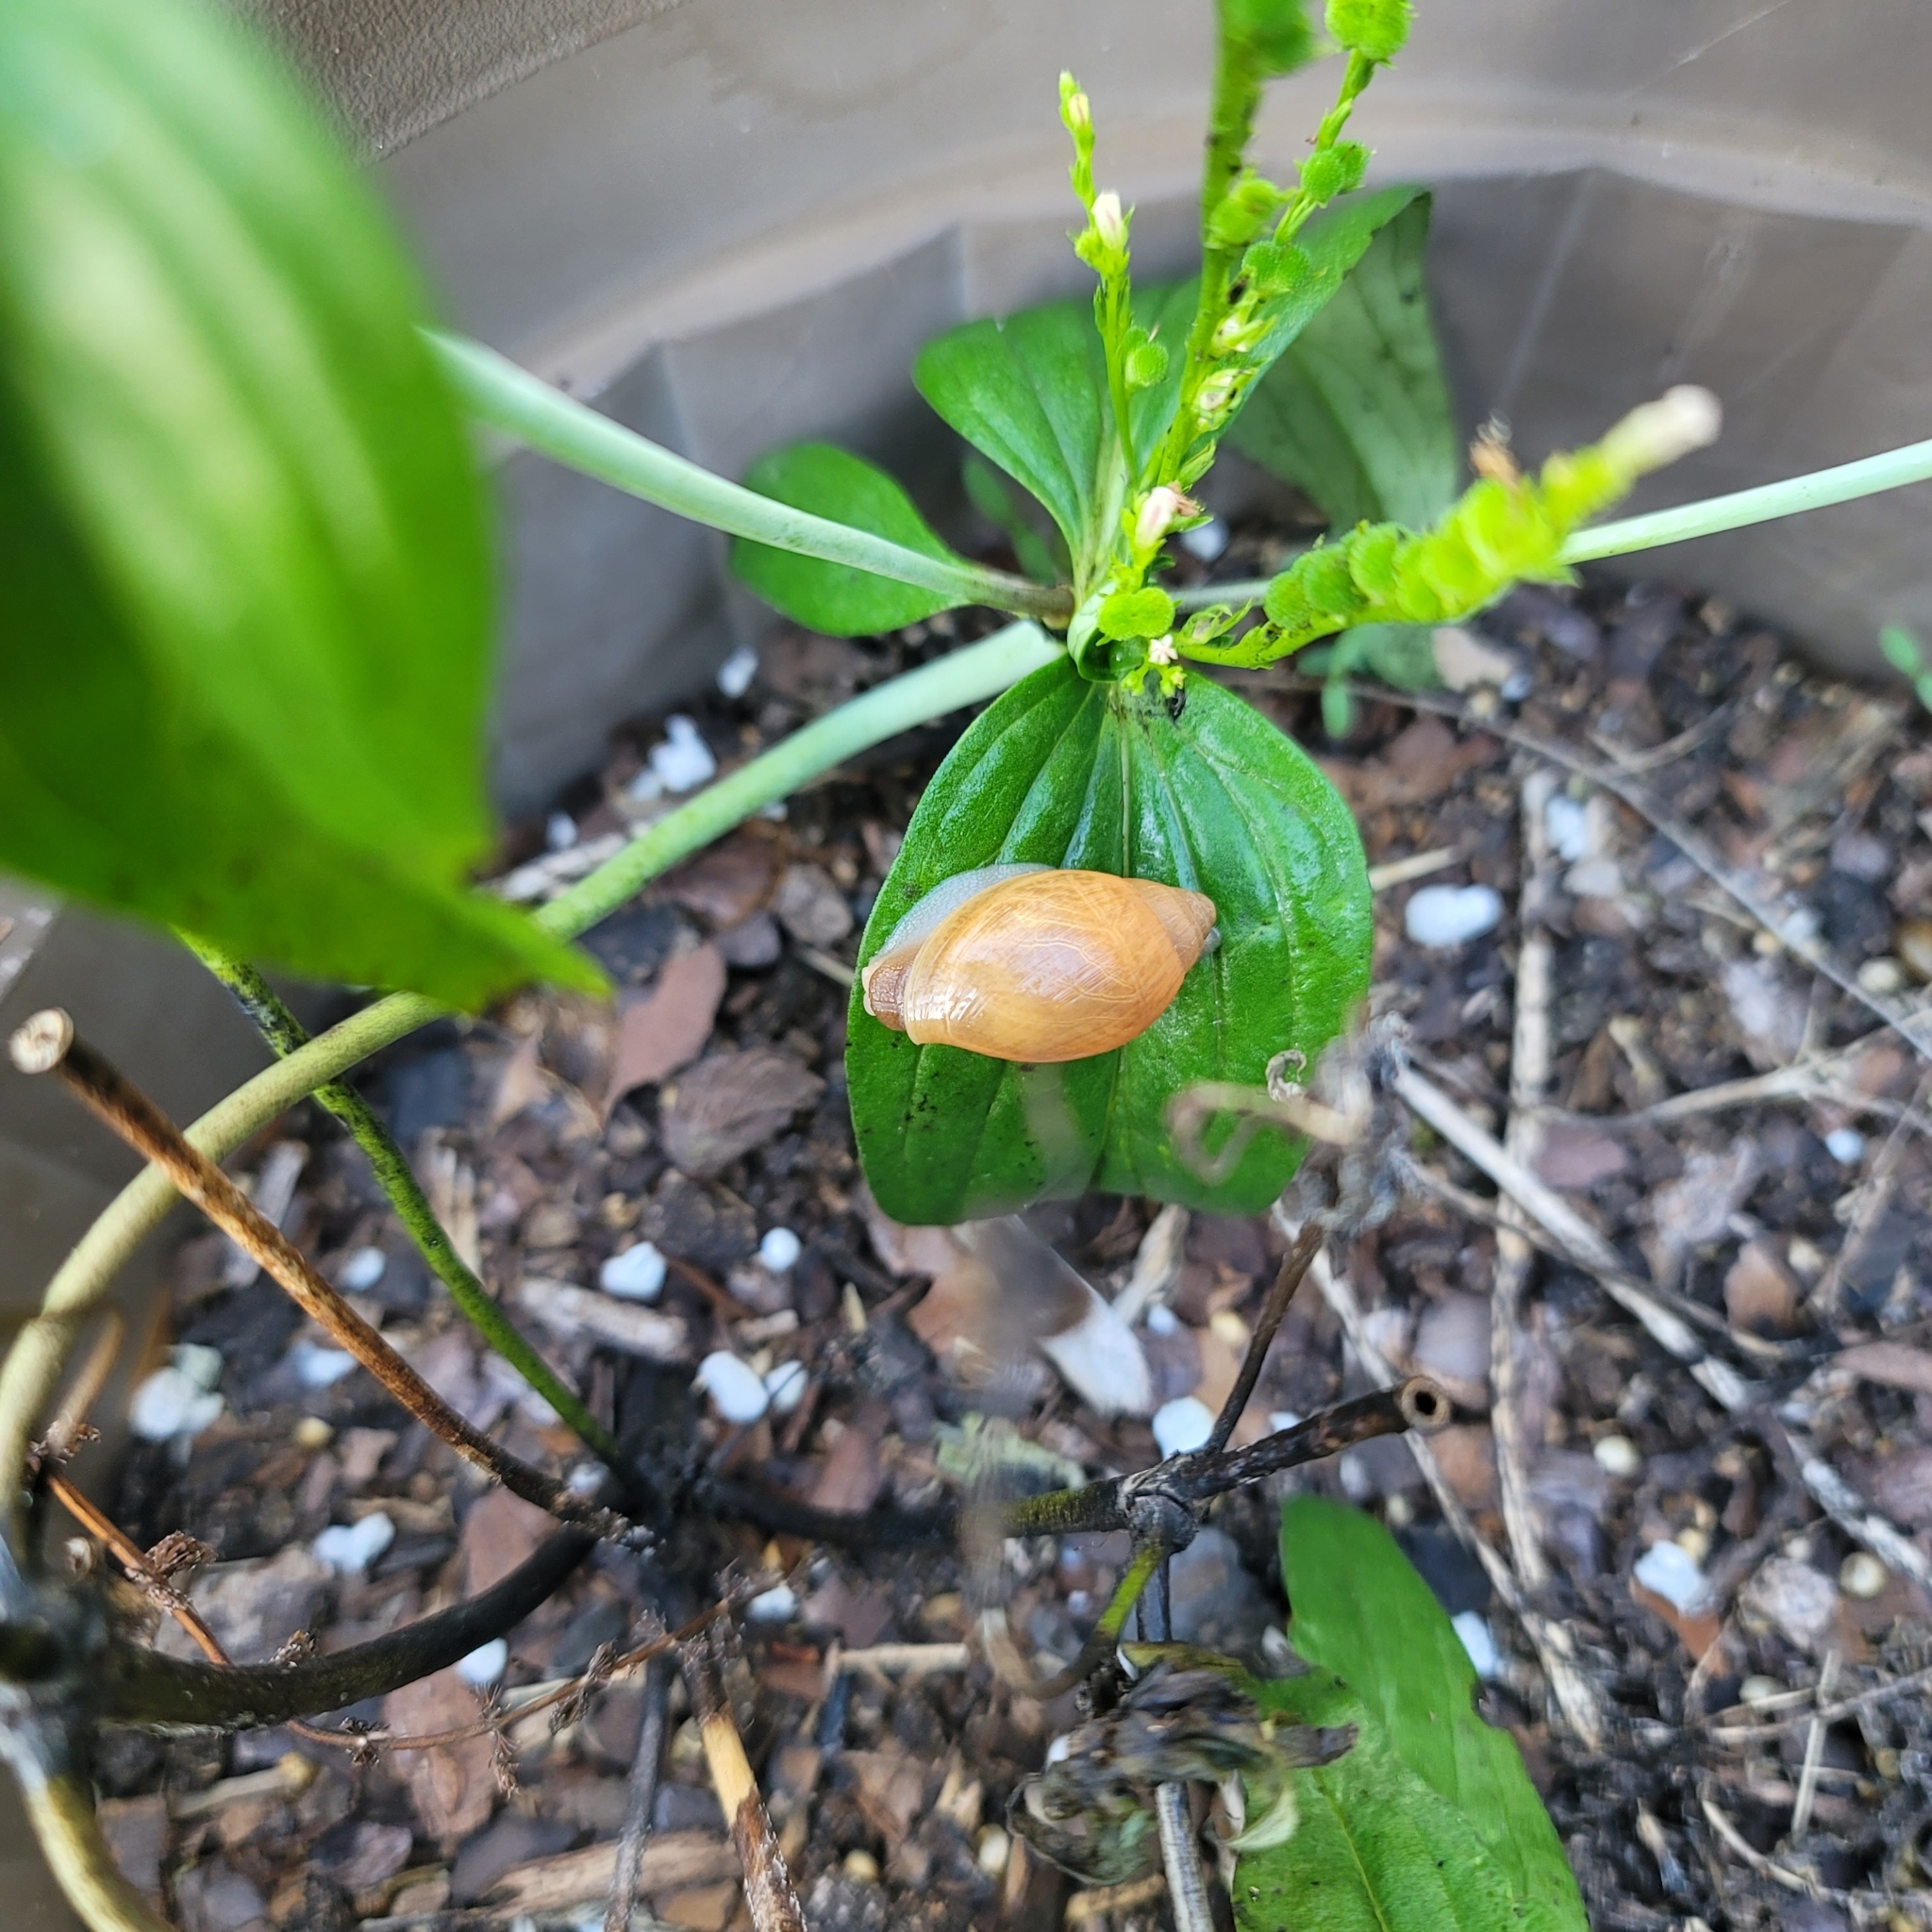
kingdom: Animalia
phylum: Mollusca
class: Gastropoda
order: Stylommatophora
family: Spiraxidae
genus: Euglandina
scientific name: Euglandina rosea
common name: Rosy wolfsnail
